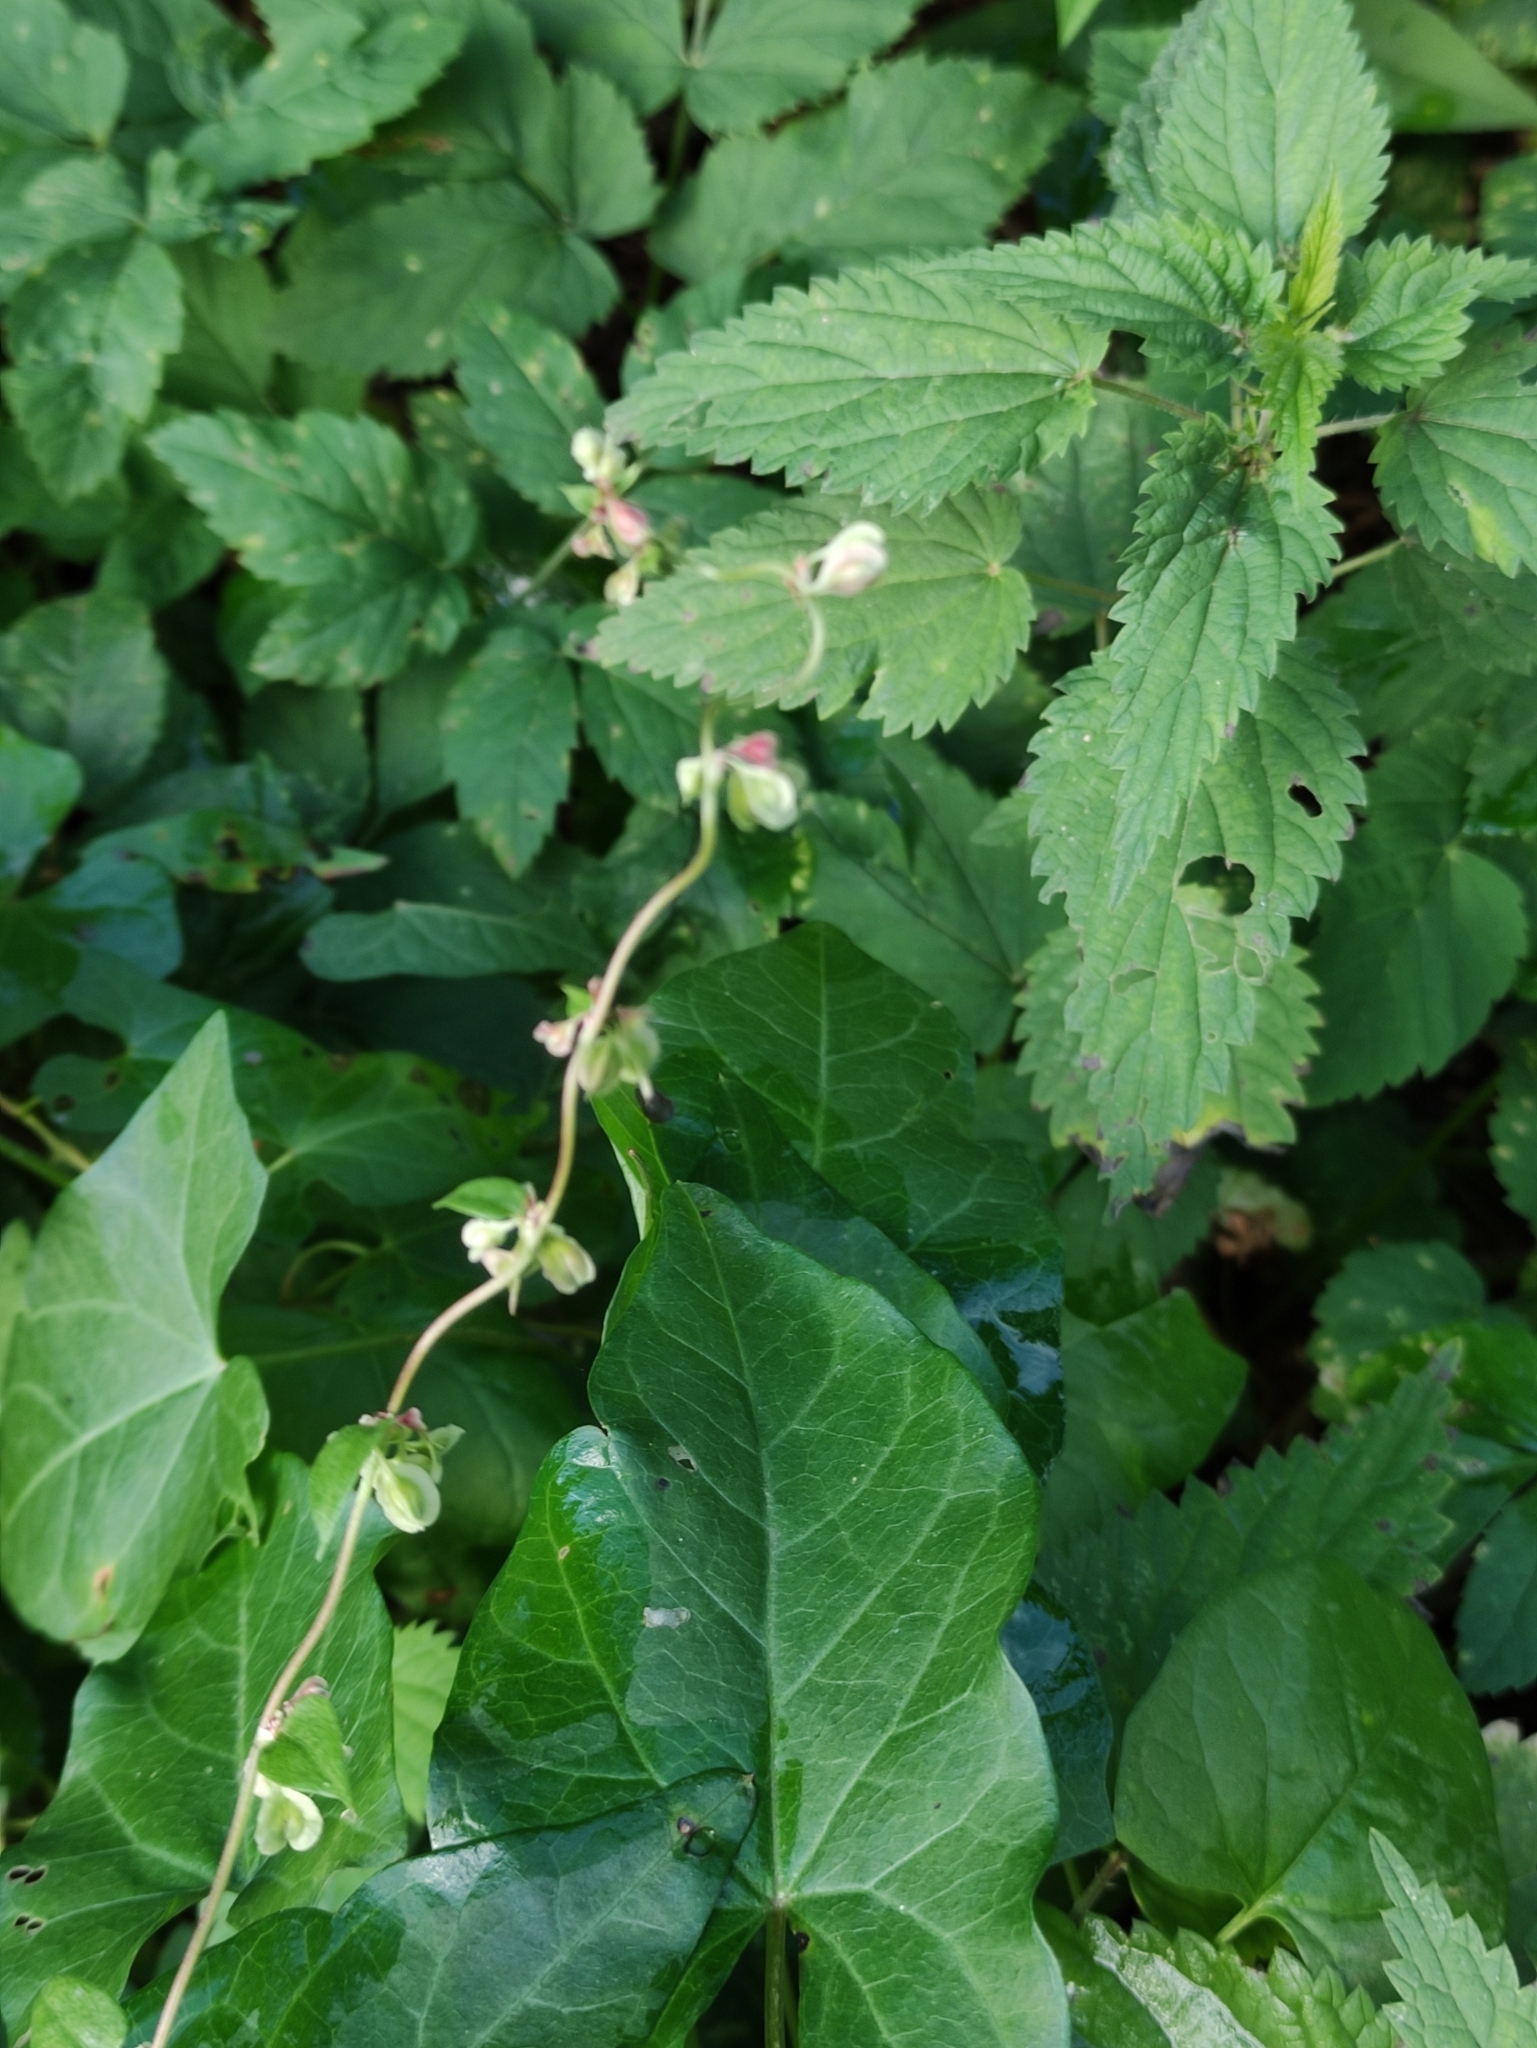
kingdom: Plantae
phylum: Tracheophyta
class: Magnoliopsida
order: Caryophyllales
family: Polygonaceae
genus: Fallopia
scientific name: Fallopia dumetorum
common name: Copse-bindweed
